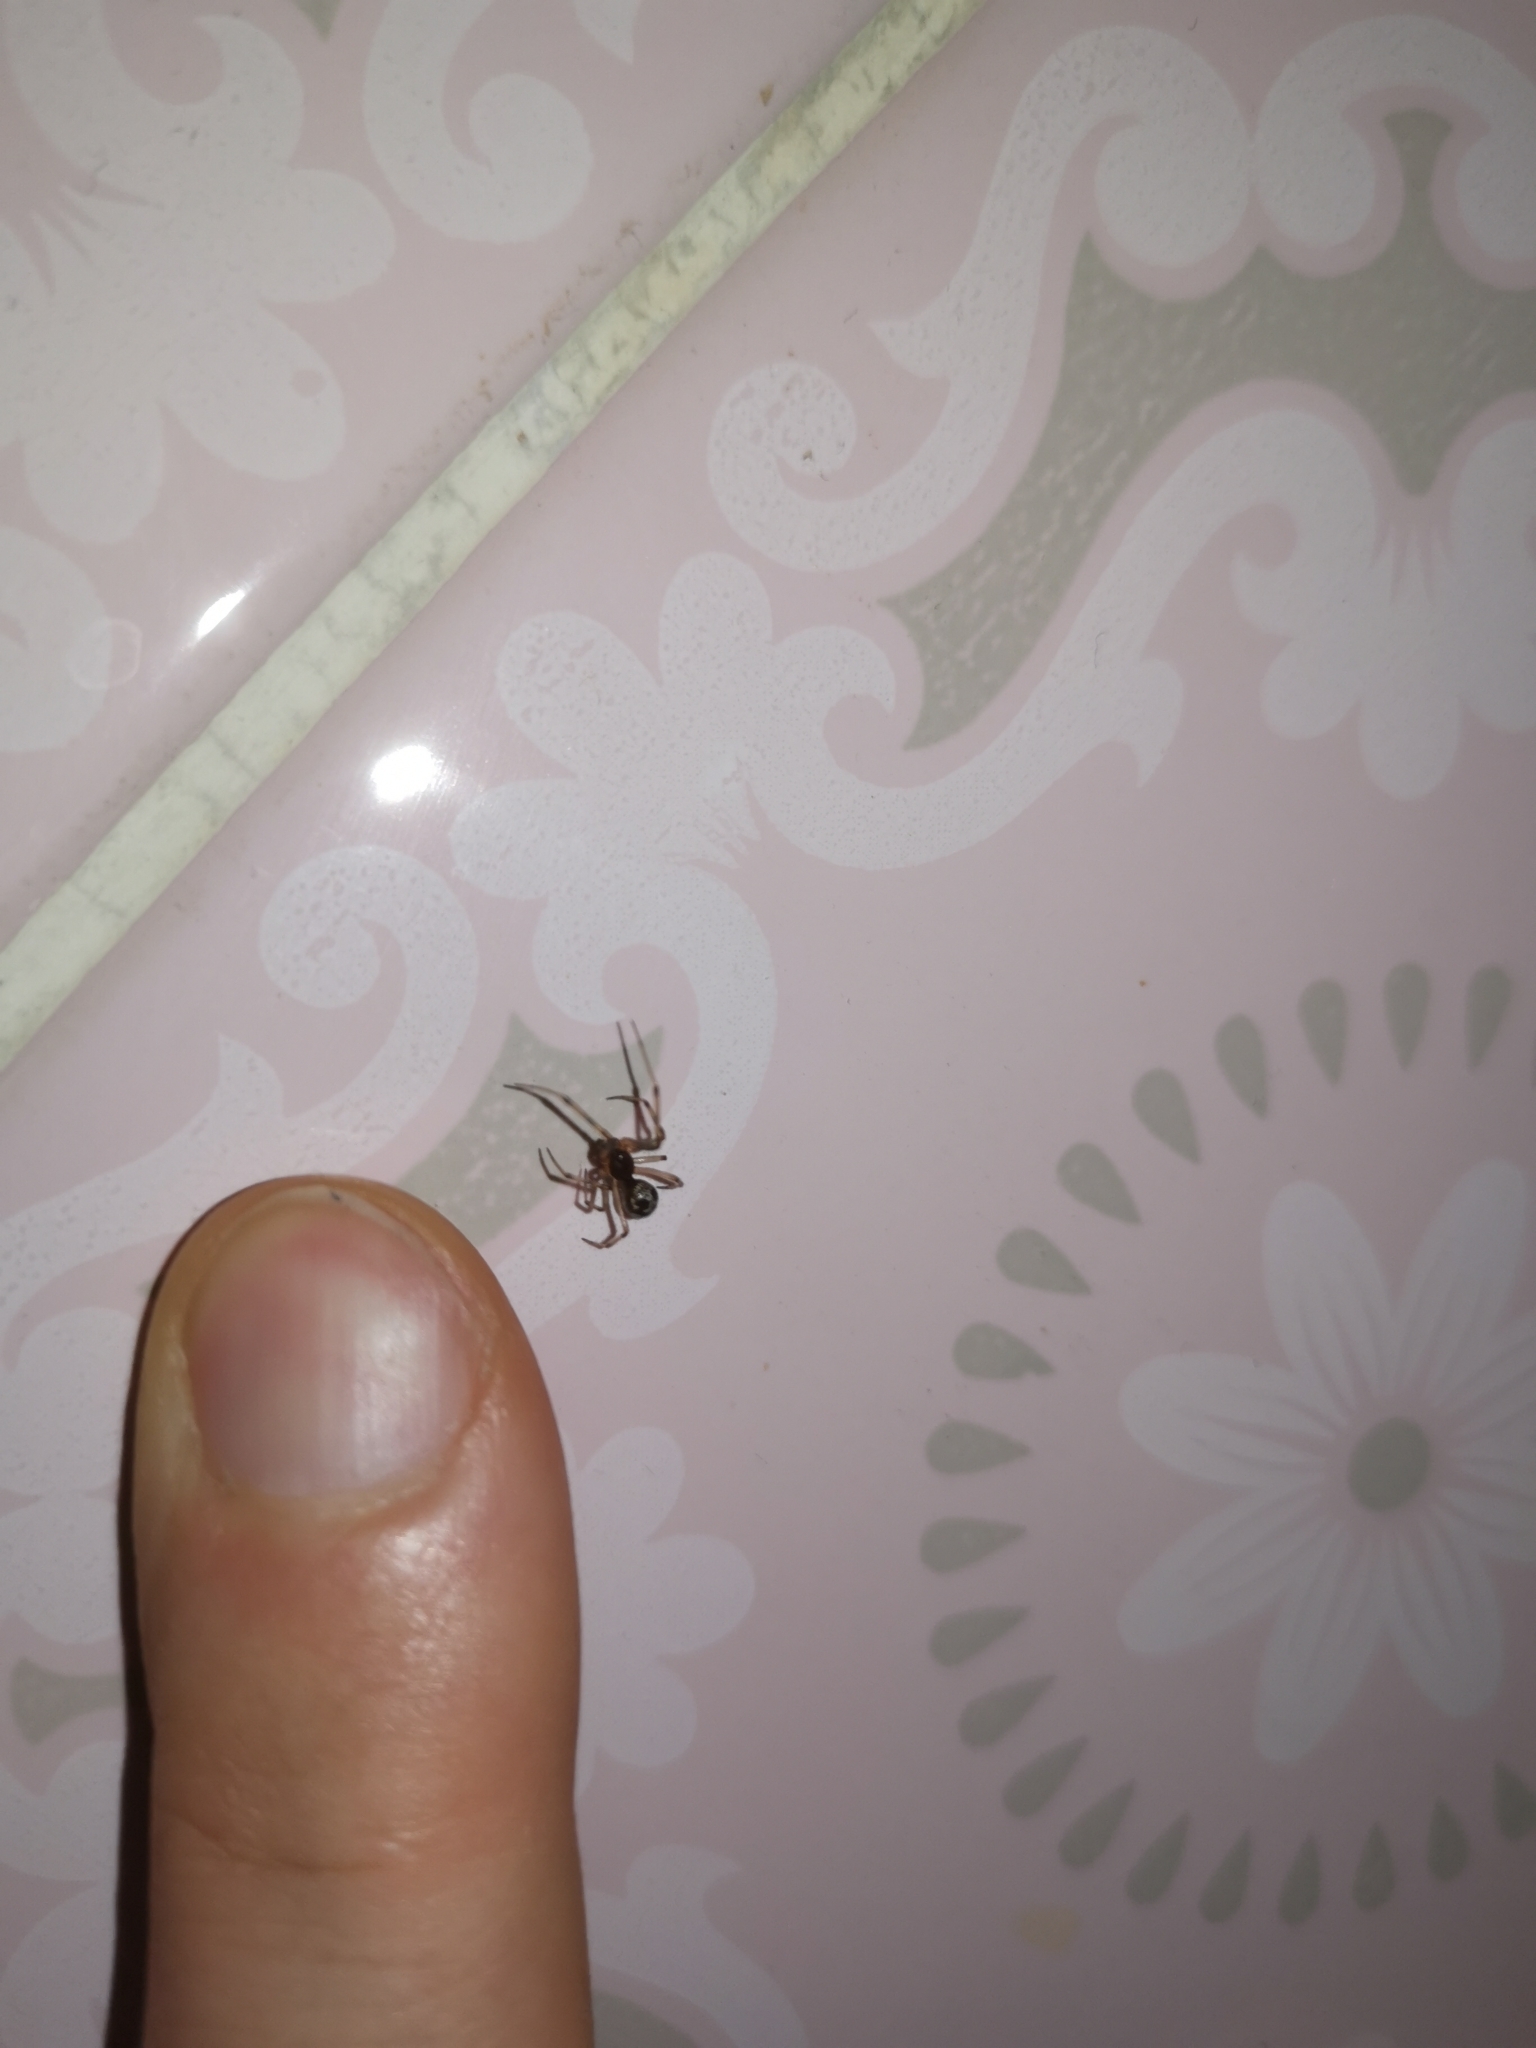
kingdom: Animalia
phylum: Arthropoda
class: Arachnida
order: Araneae
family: Theridiidae
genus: Steatoda
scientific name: Steatoda triangulosa
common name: Triangulate bud spider
